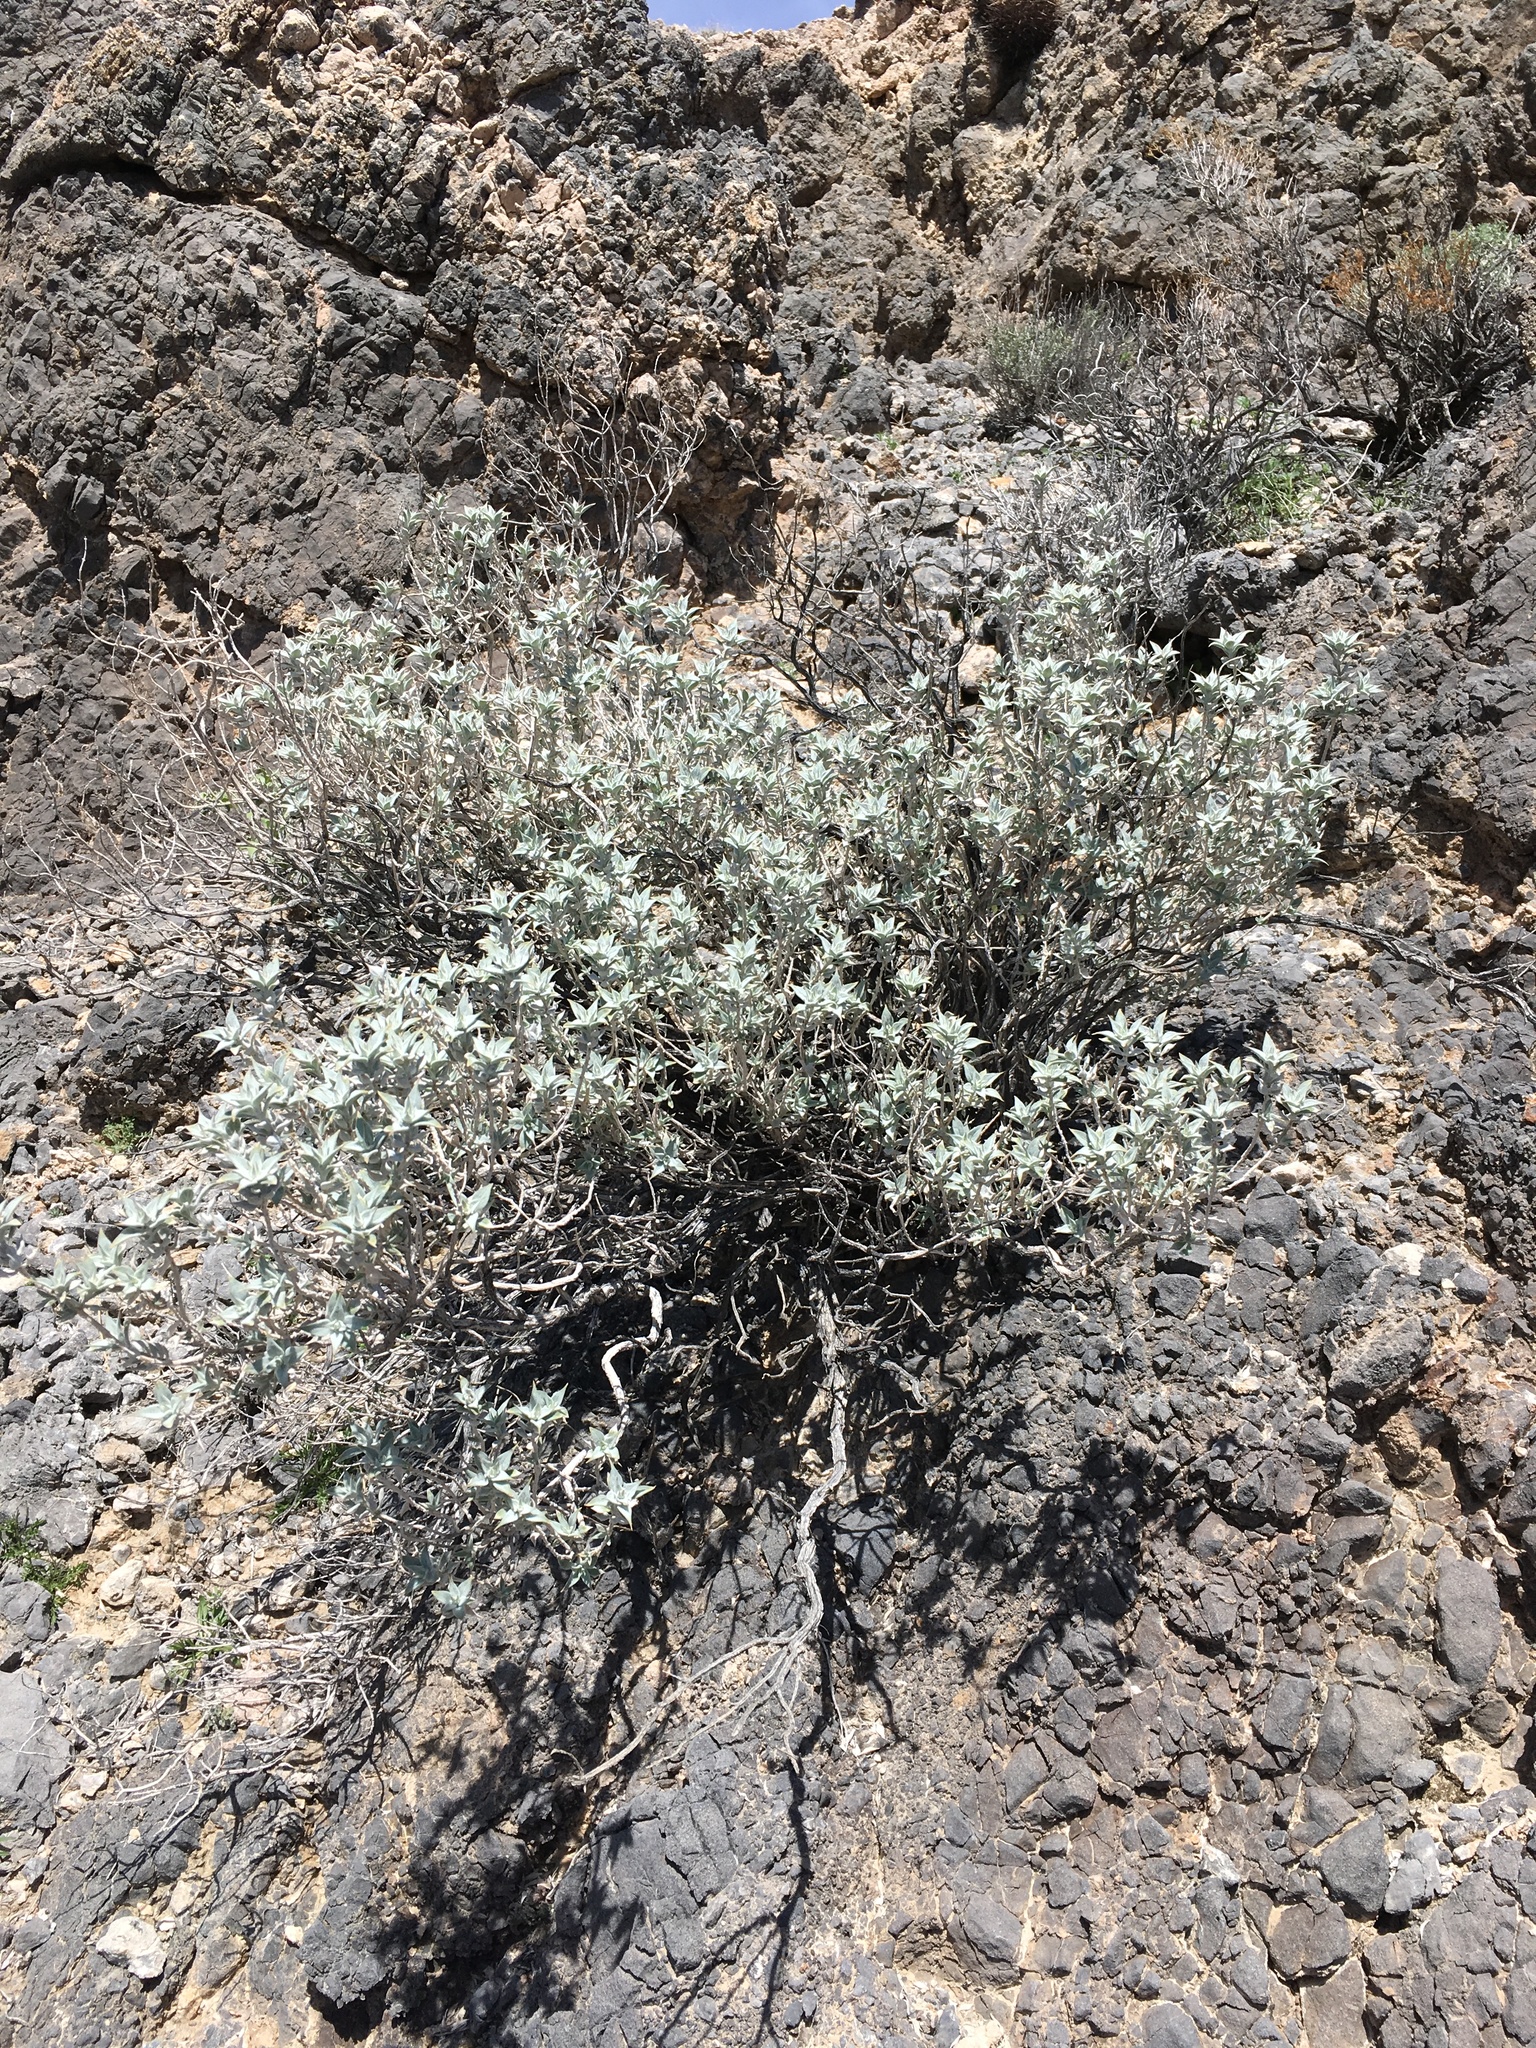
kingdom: Plantae
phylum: Tracheophyta
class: Magnoliopsida
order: Lamiales
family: Lamiaceae
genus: Salvia
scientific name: Salvia funerea
